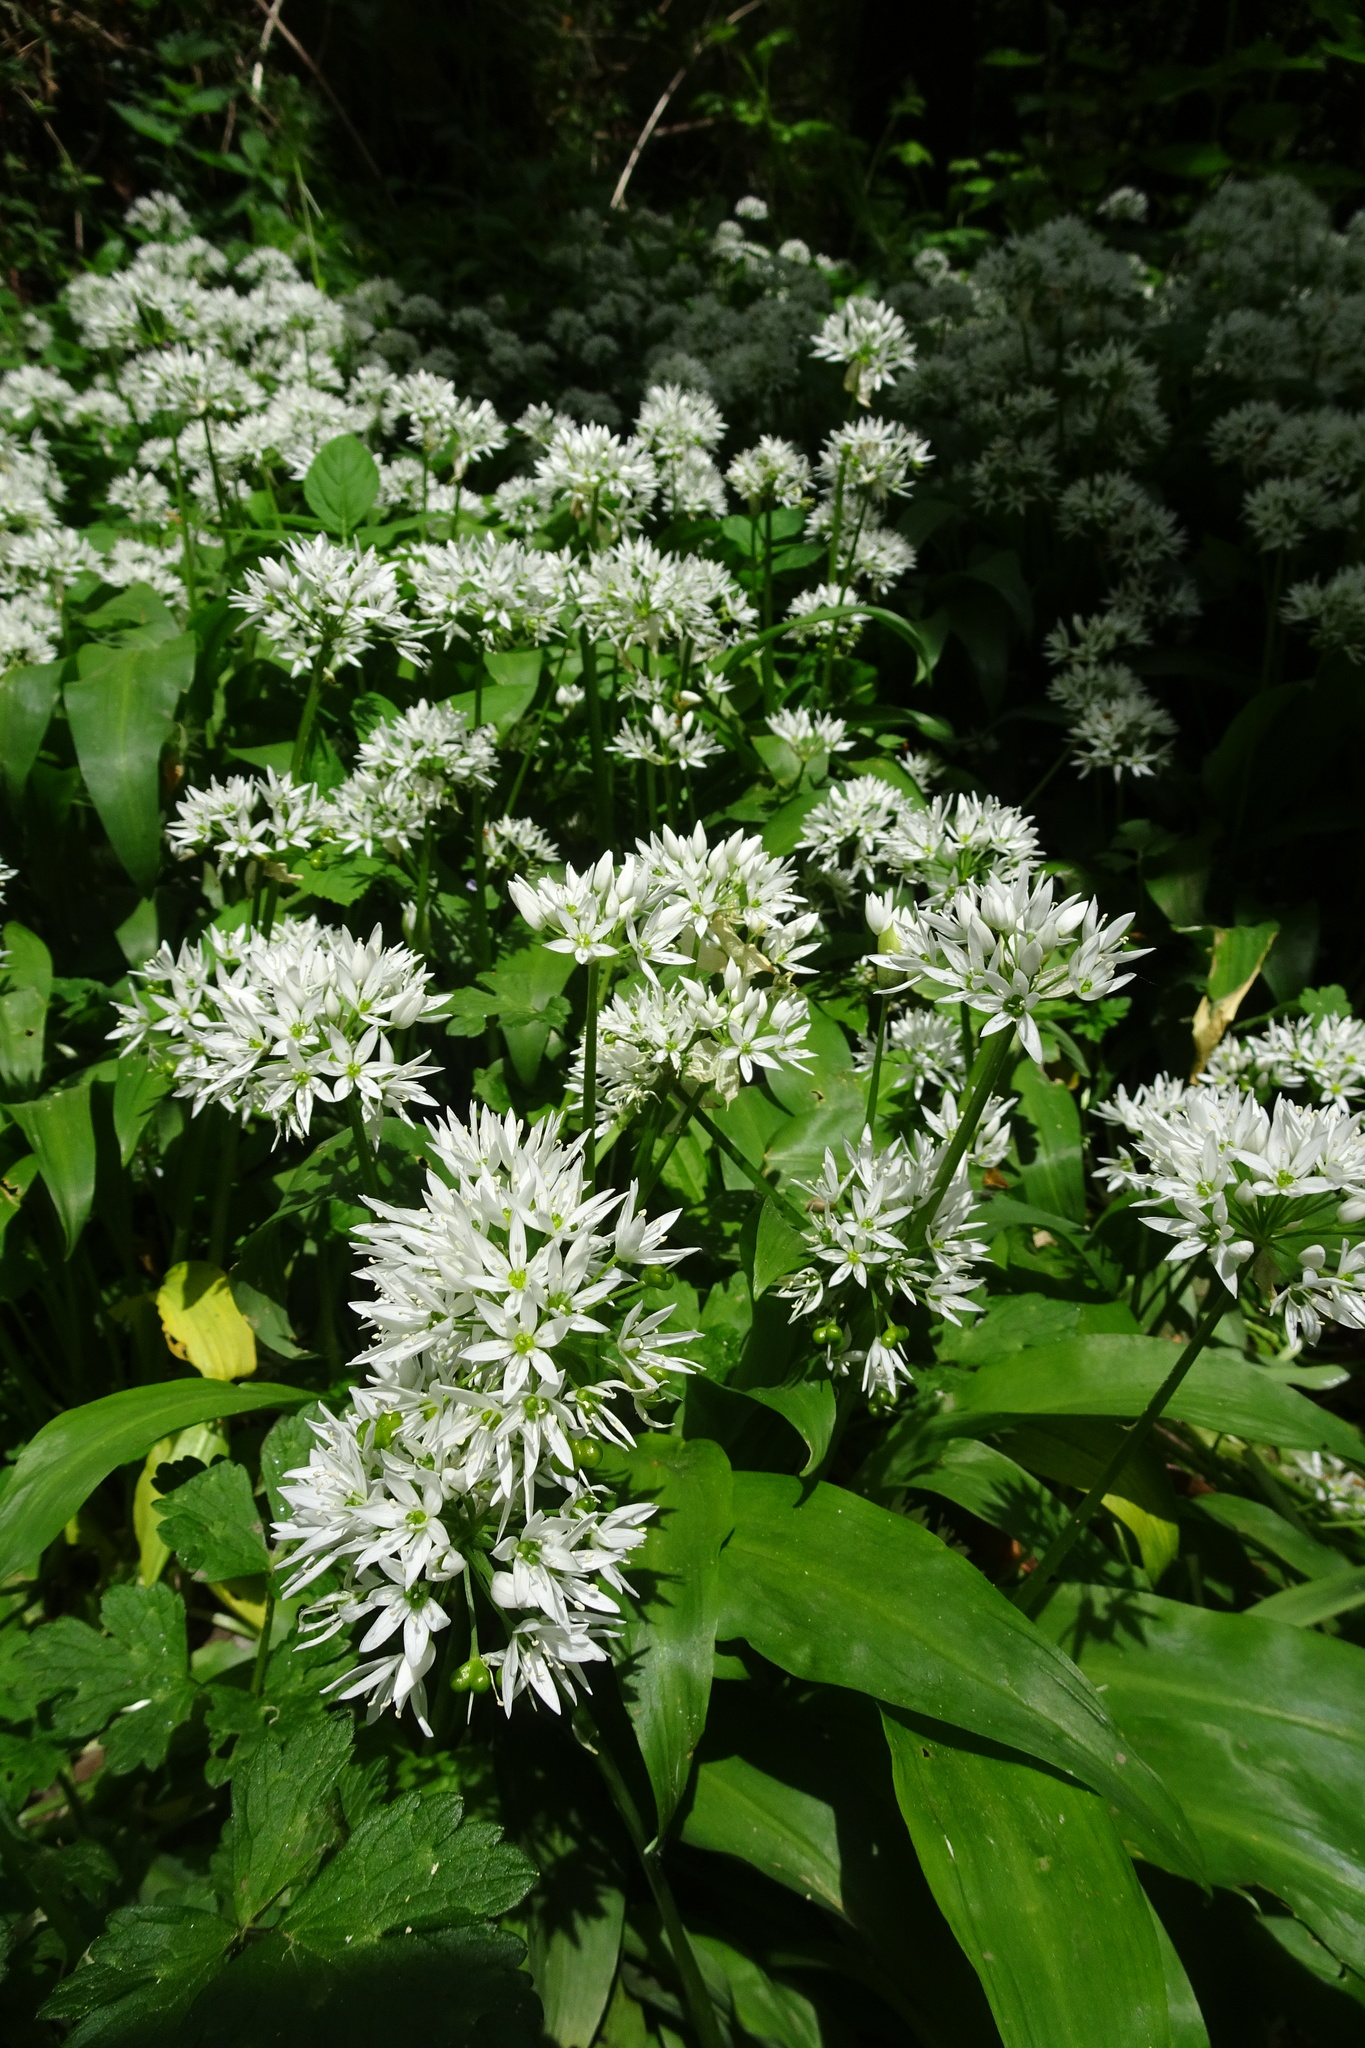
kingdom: Plantae
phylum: Tracheophyta
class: Liliopsida
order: Asparagales
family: Amaryllidaceae
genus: Allium
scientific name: Allium ursinum
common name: Ramsons
